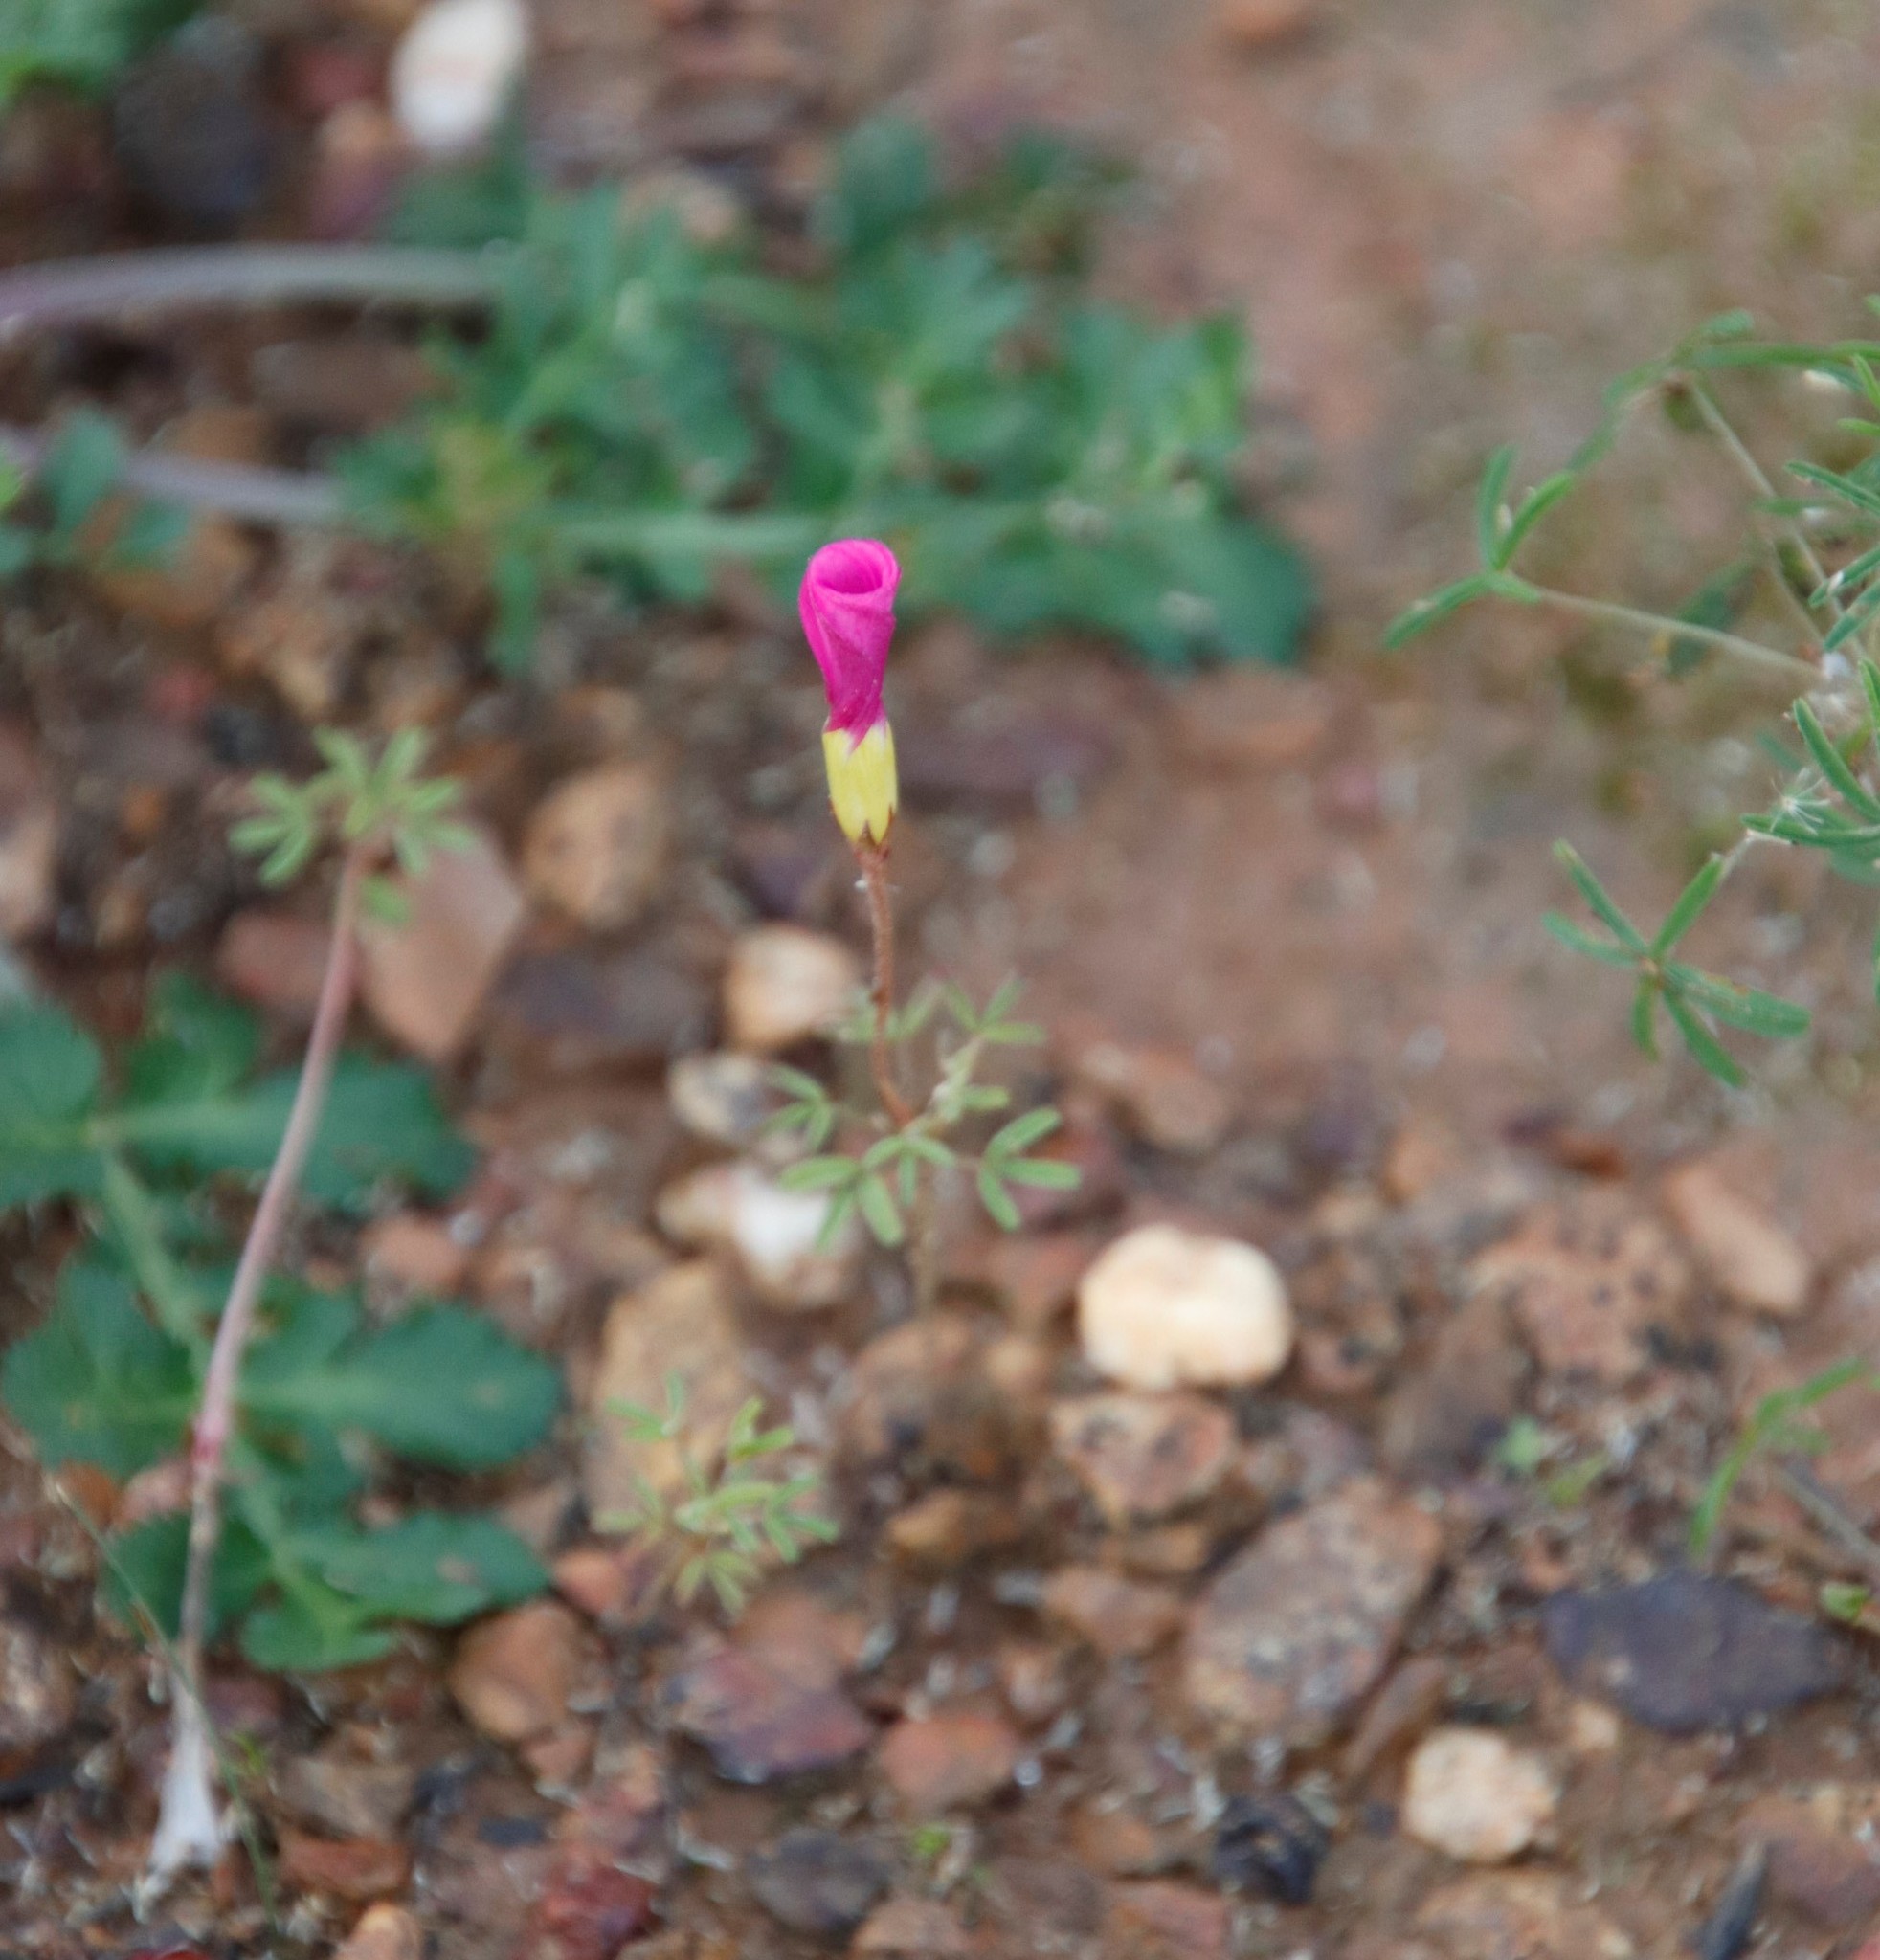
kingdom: Plantae
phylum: Tracheophyta
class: Magnoliopsida
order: Oxalidales
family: Oxalidaceae
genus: Oxalis
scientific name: Oxalis glabra
